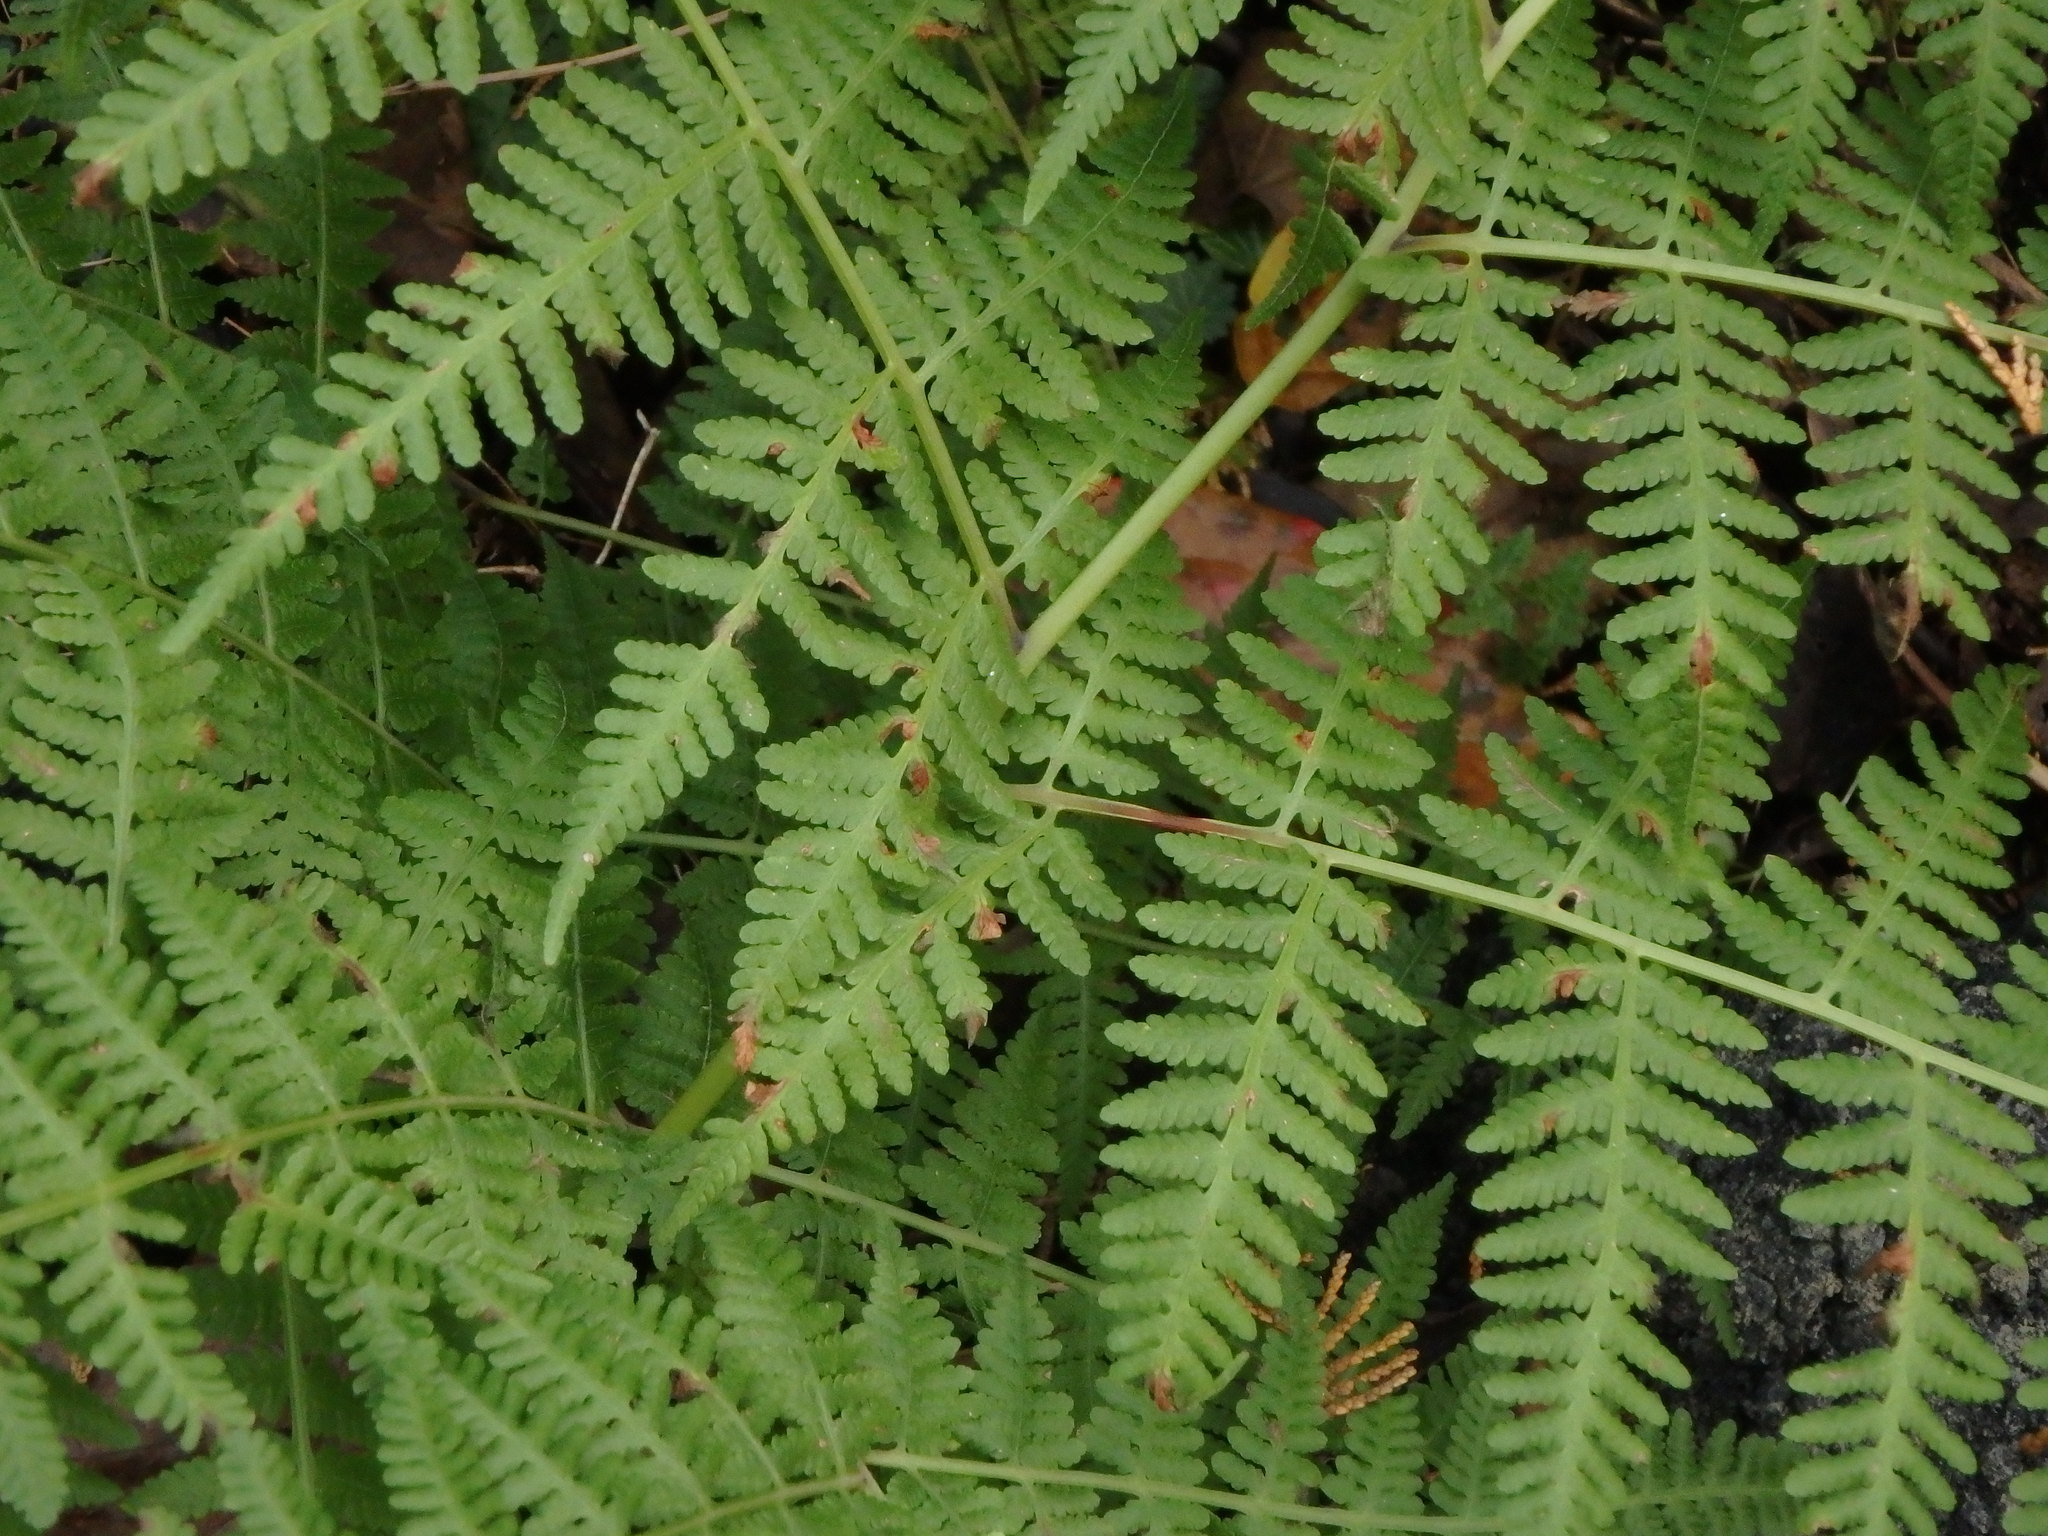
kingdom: Plantae
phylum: Tracheophyta
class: Polypodiopsida
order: Polypodiales
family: Thelypteridaceae
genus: Macrothelypteris
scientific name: Macrothelypteris viridifrons
